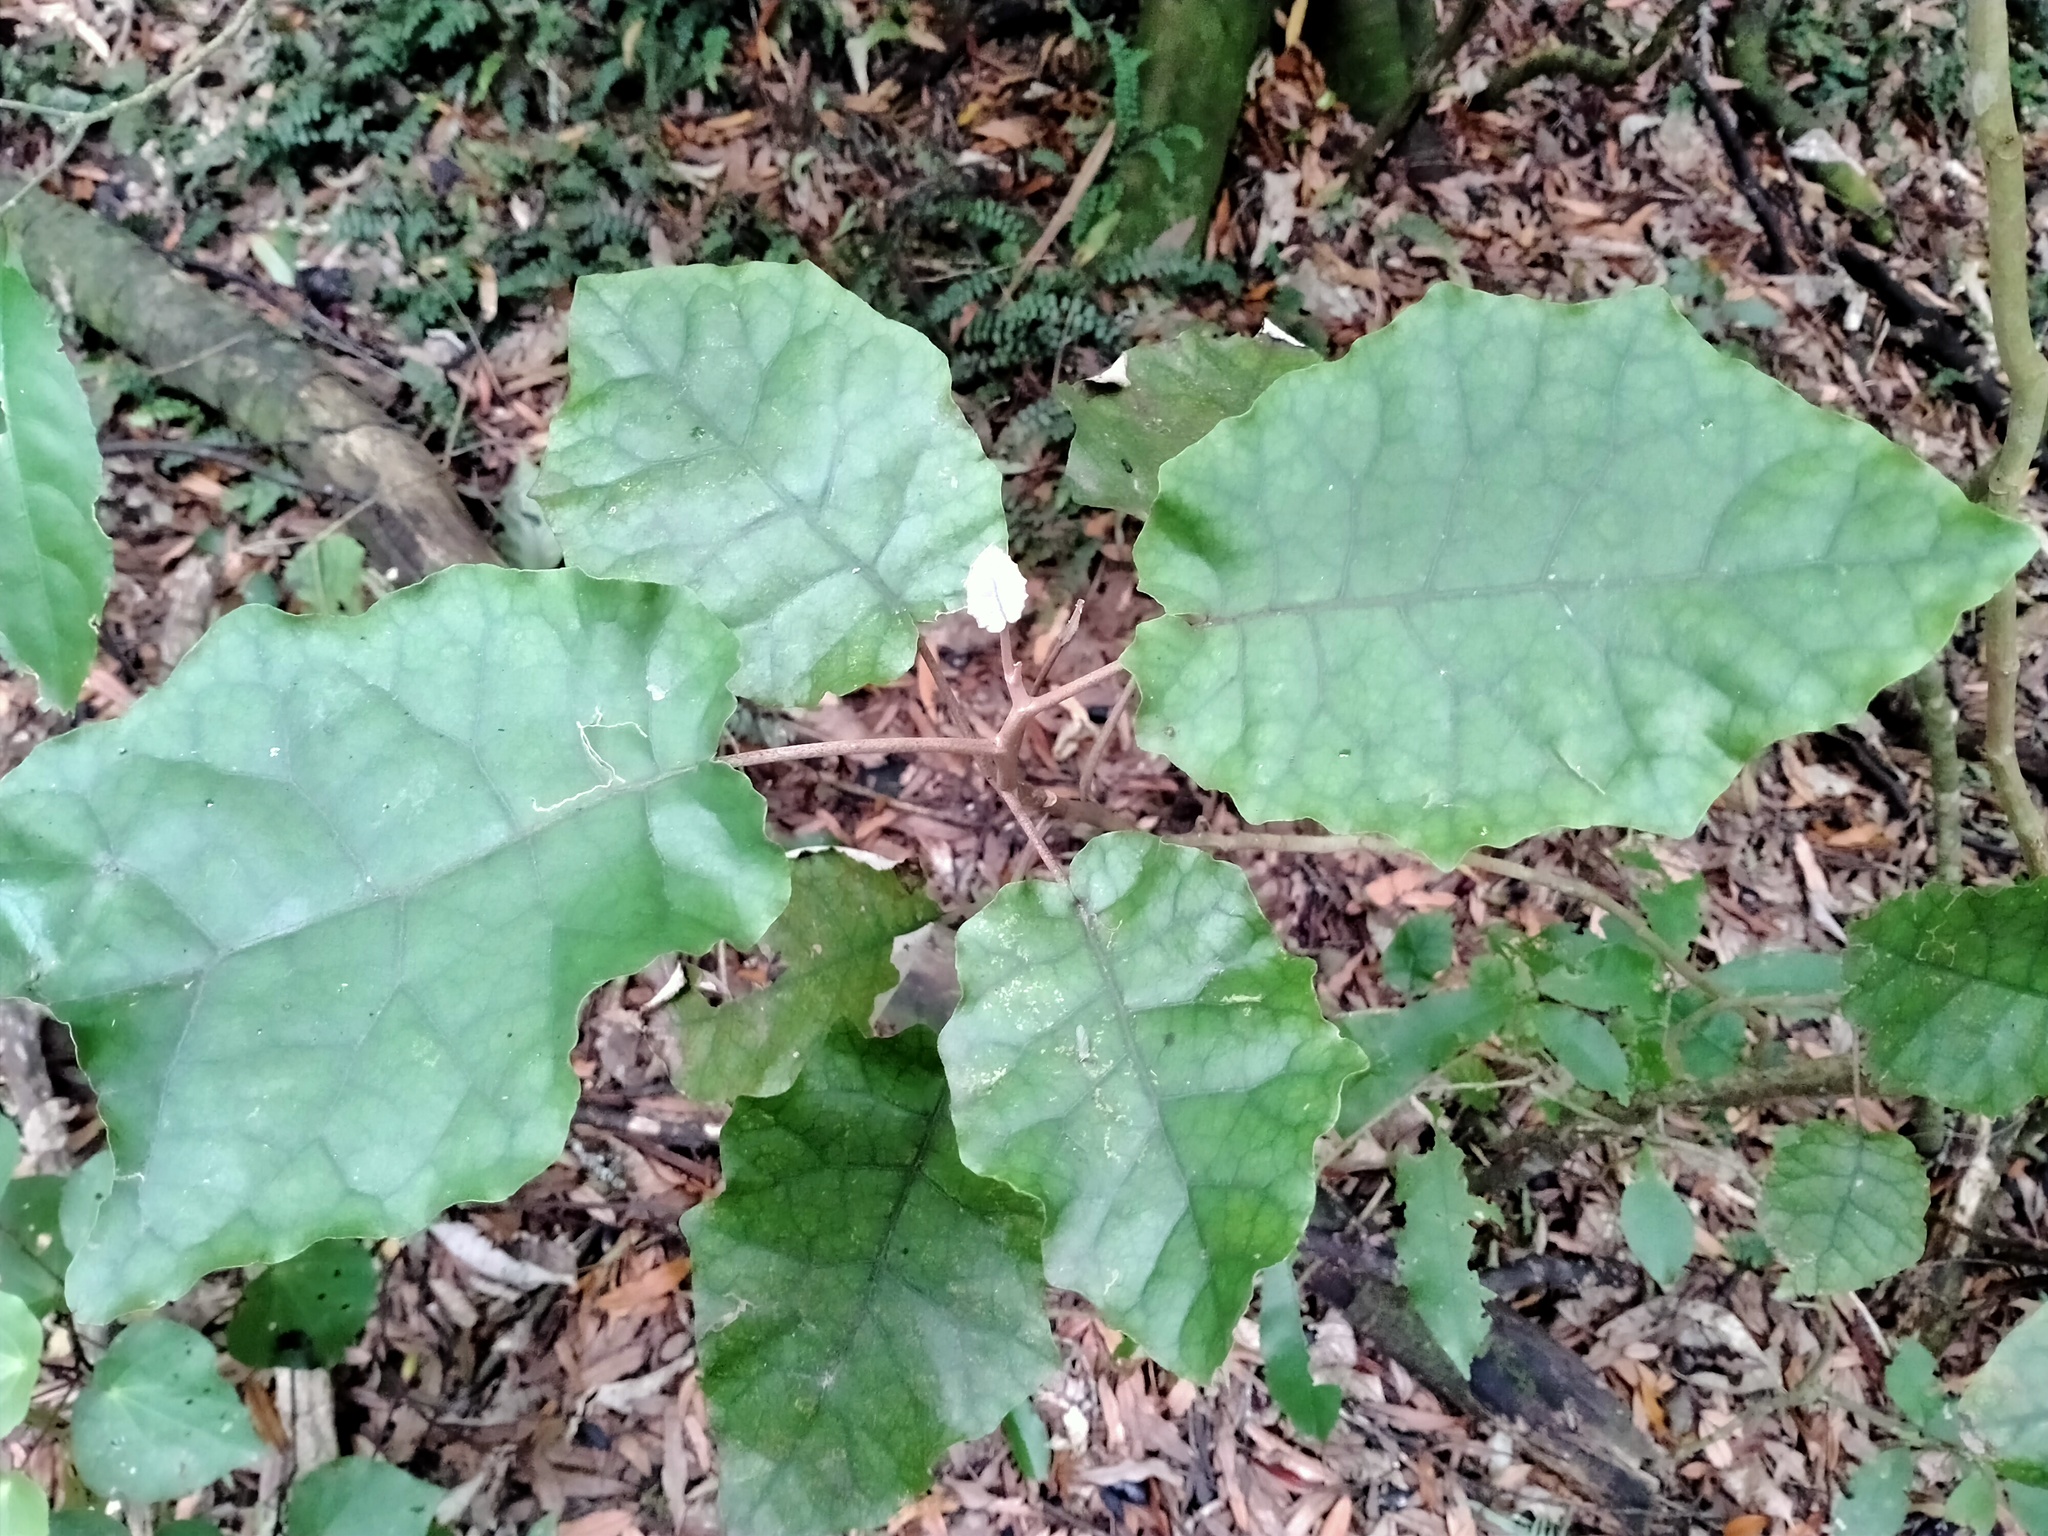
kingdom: Plantae
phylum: Tracheophyta
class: Magnoliopsida
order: Asterales
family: Asteraceae
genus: Brachyglottis
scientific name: Brachyglottis repanda
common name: Hedge ragwort
